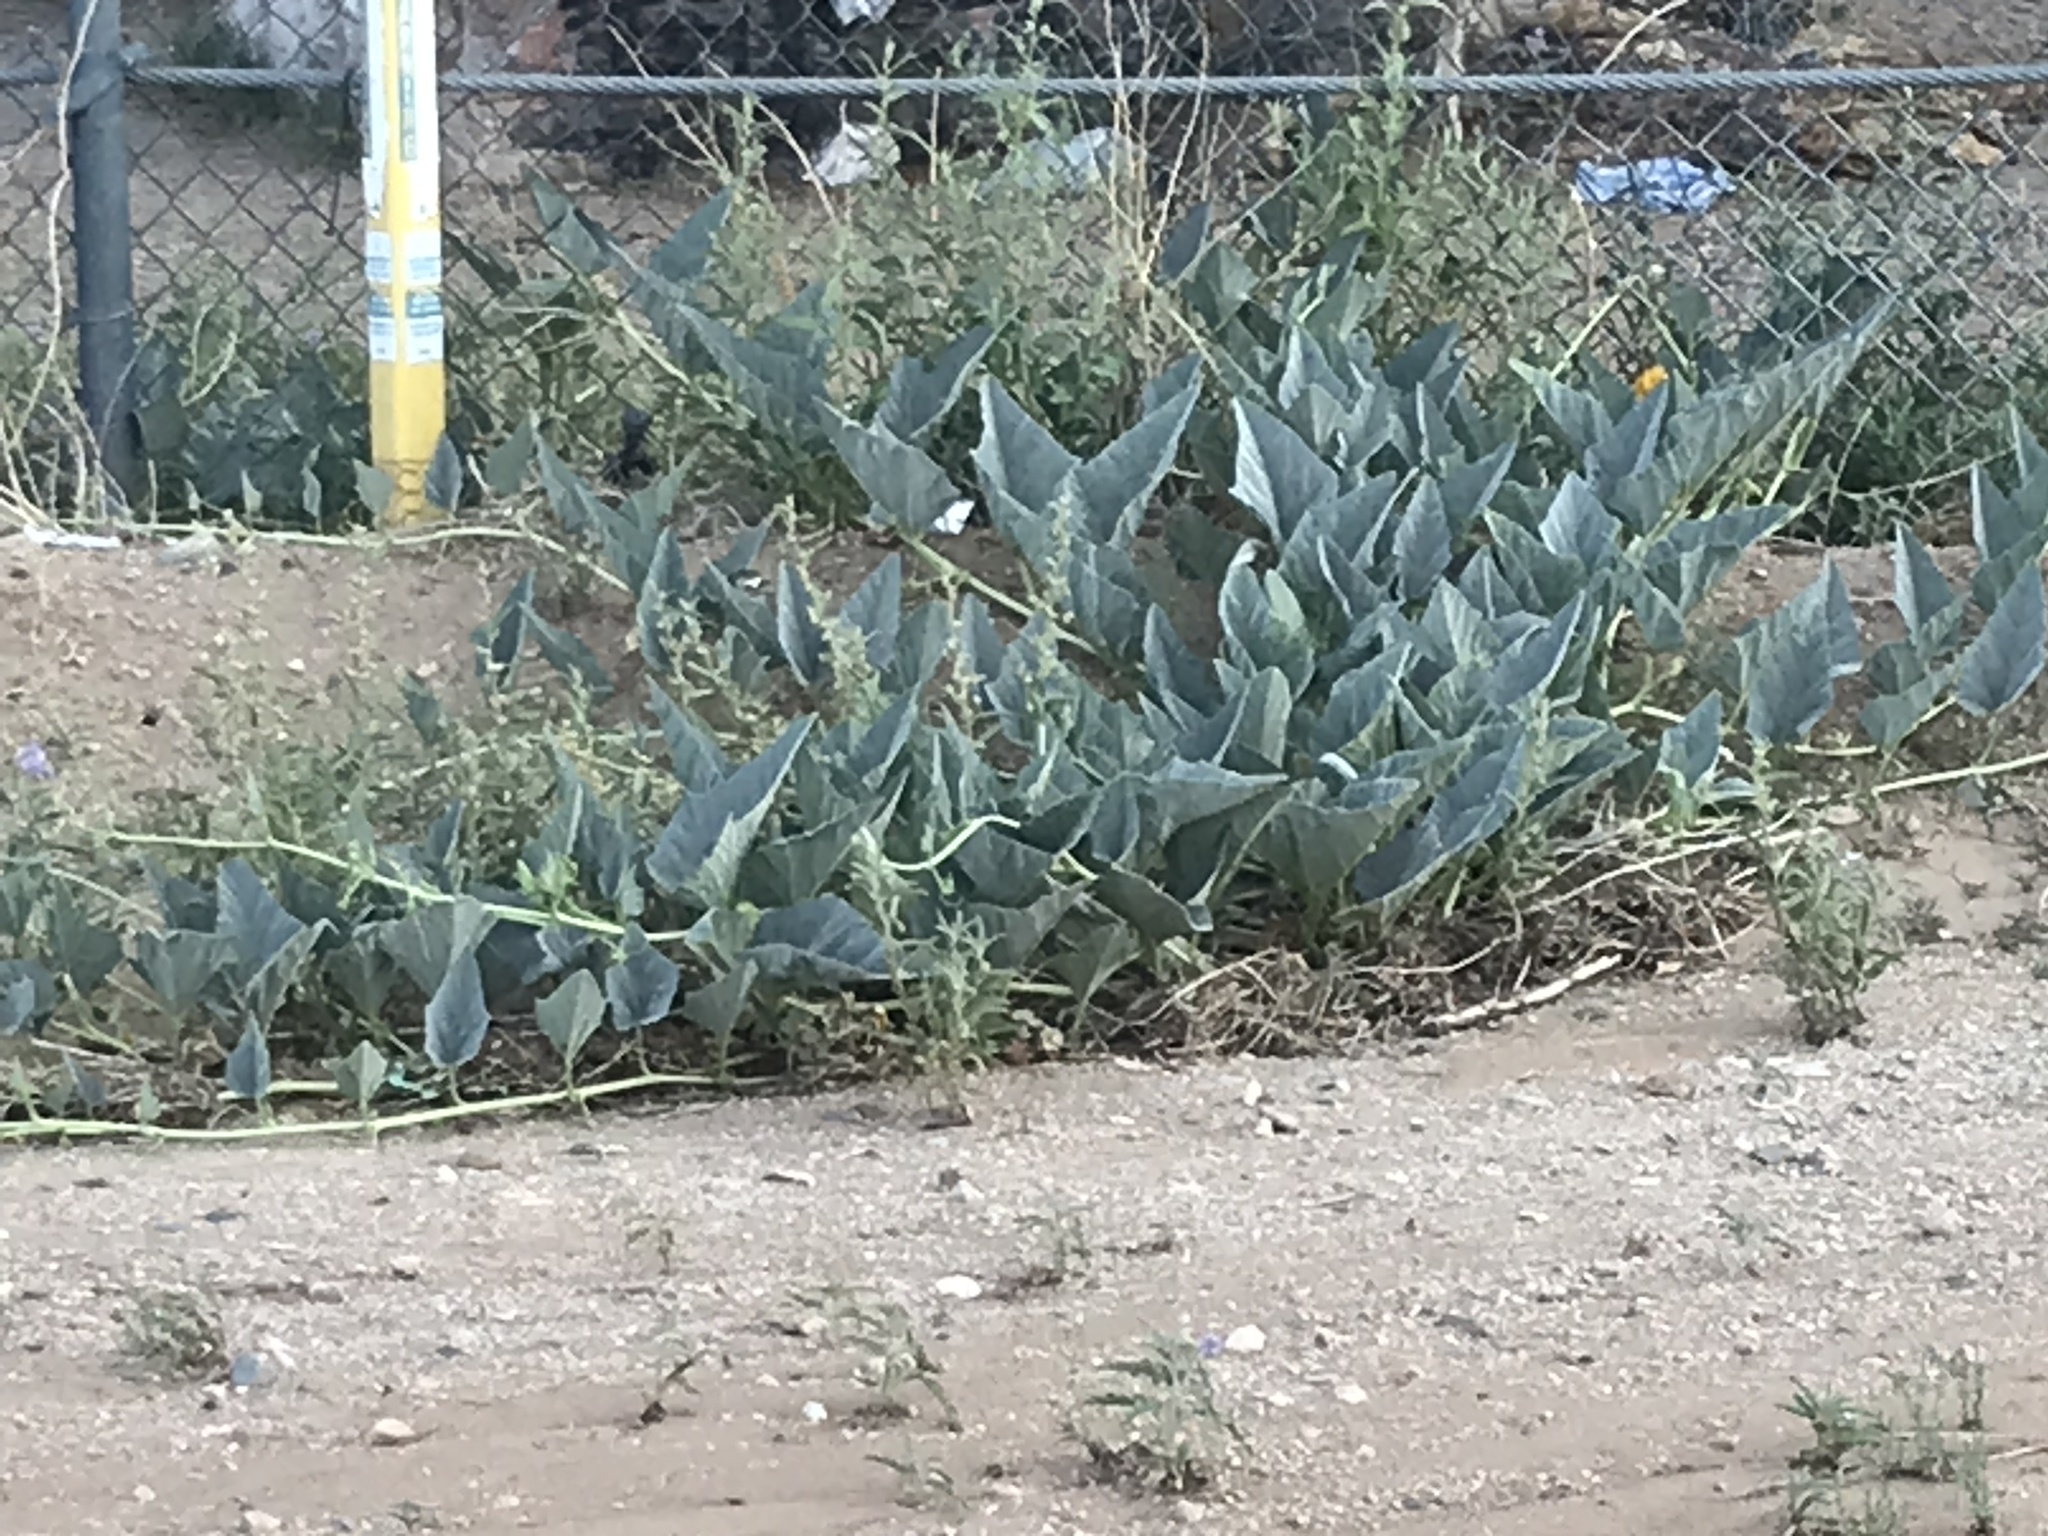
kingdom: Plantae
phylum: Tracheophyta
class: Magnoliopsida
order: Cucurbitales
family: Cucurbitaceae
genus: Cucurbita
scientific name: Cucurbita foetidissima
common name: Buffalo gourd
